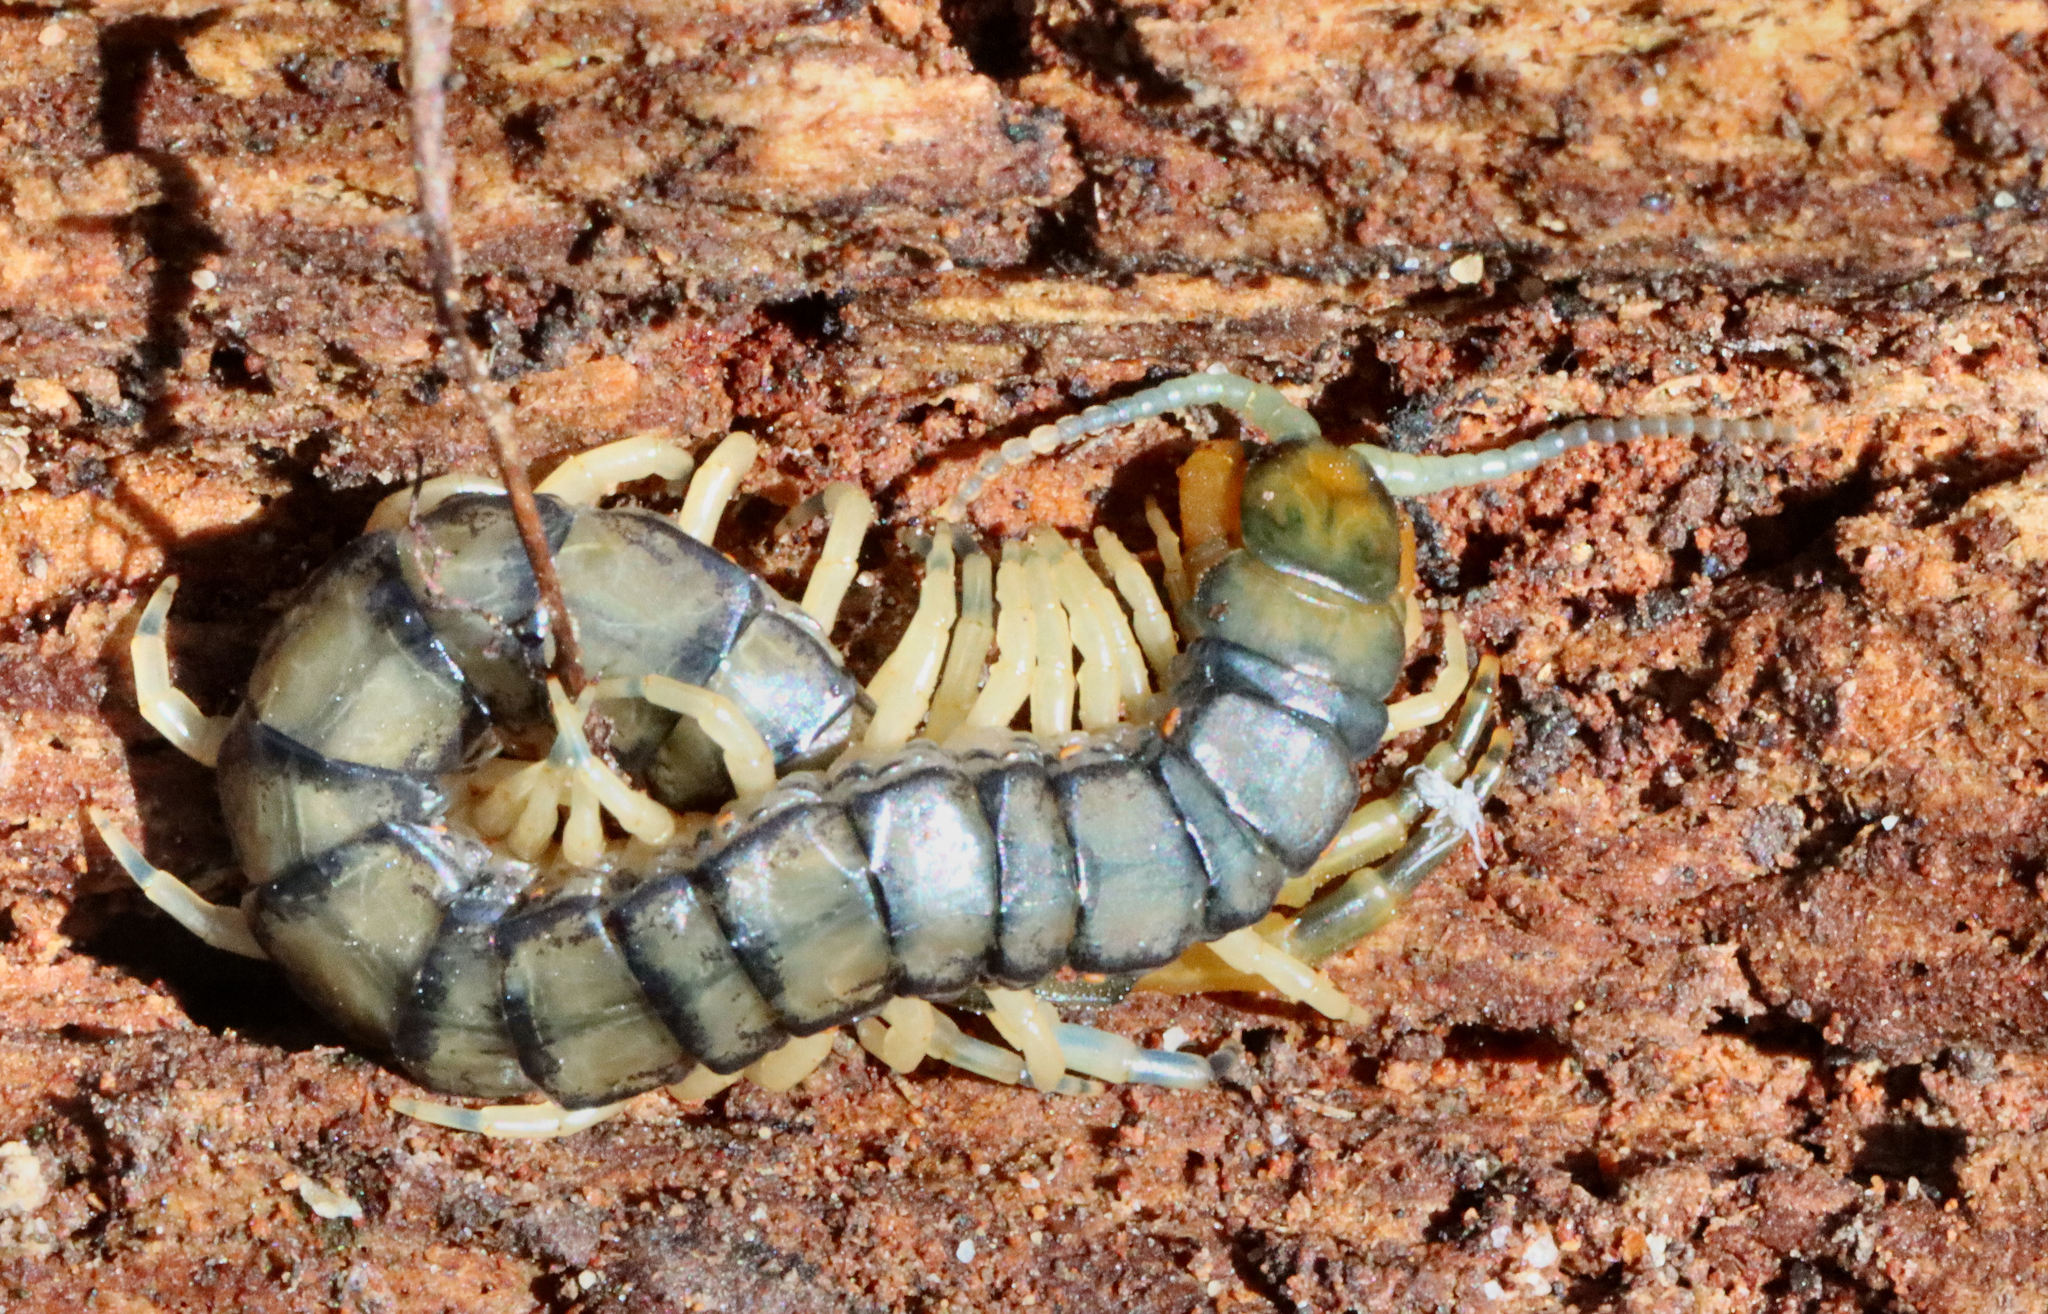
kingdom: Animalia
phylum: Arthropoda
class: Chilopoda
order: Scolopendromorpha
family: Scolopendridae
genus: Hemiscolopendra
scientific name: Hemiscolopendra marginata
